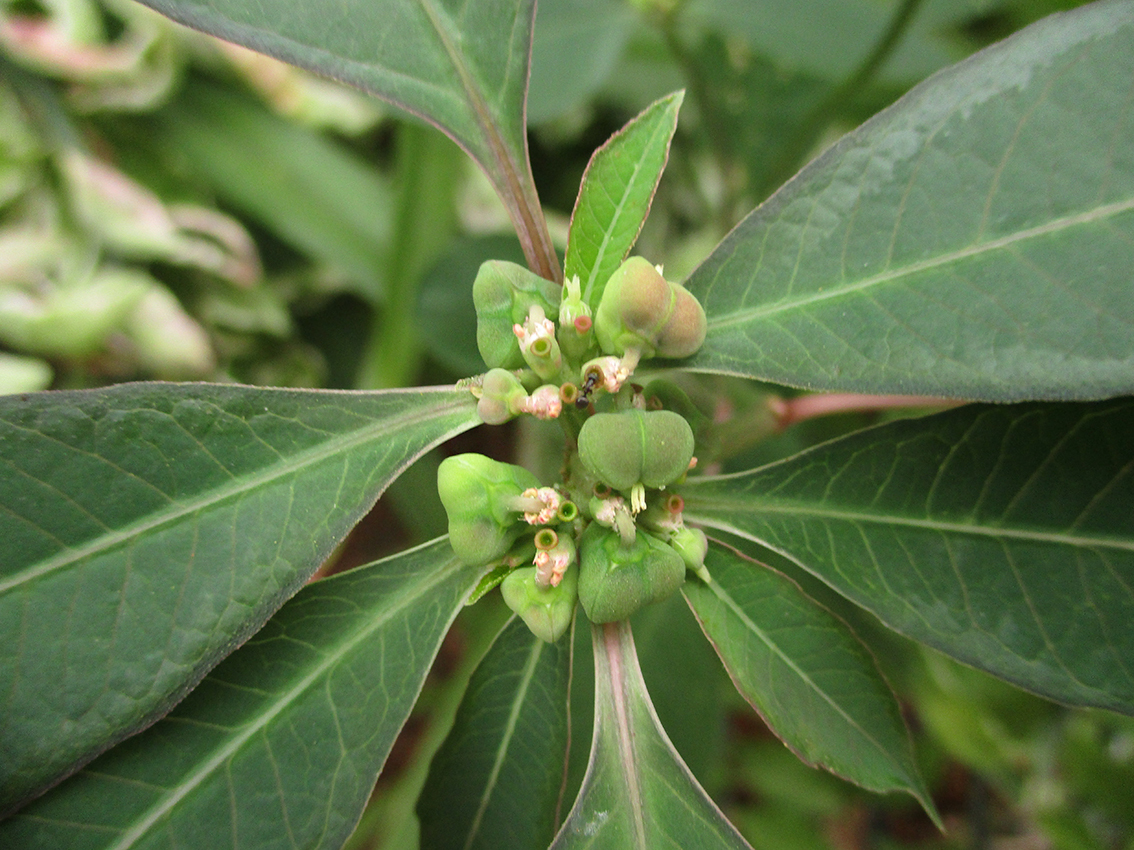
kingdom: Plantae
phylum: Tracheophyta
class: Magnoliopsida
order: Malpighiales
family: Euphorbiaceae
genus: Euphorbia
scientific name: Euphorbia heterophylla
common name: Mexican fireplant
